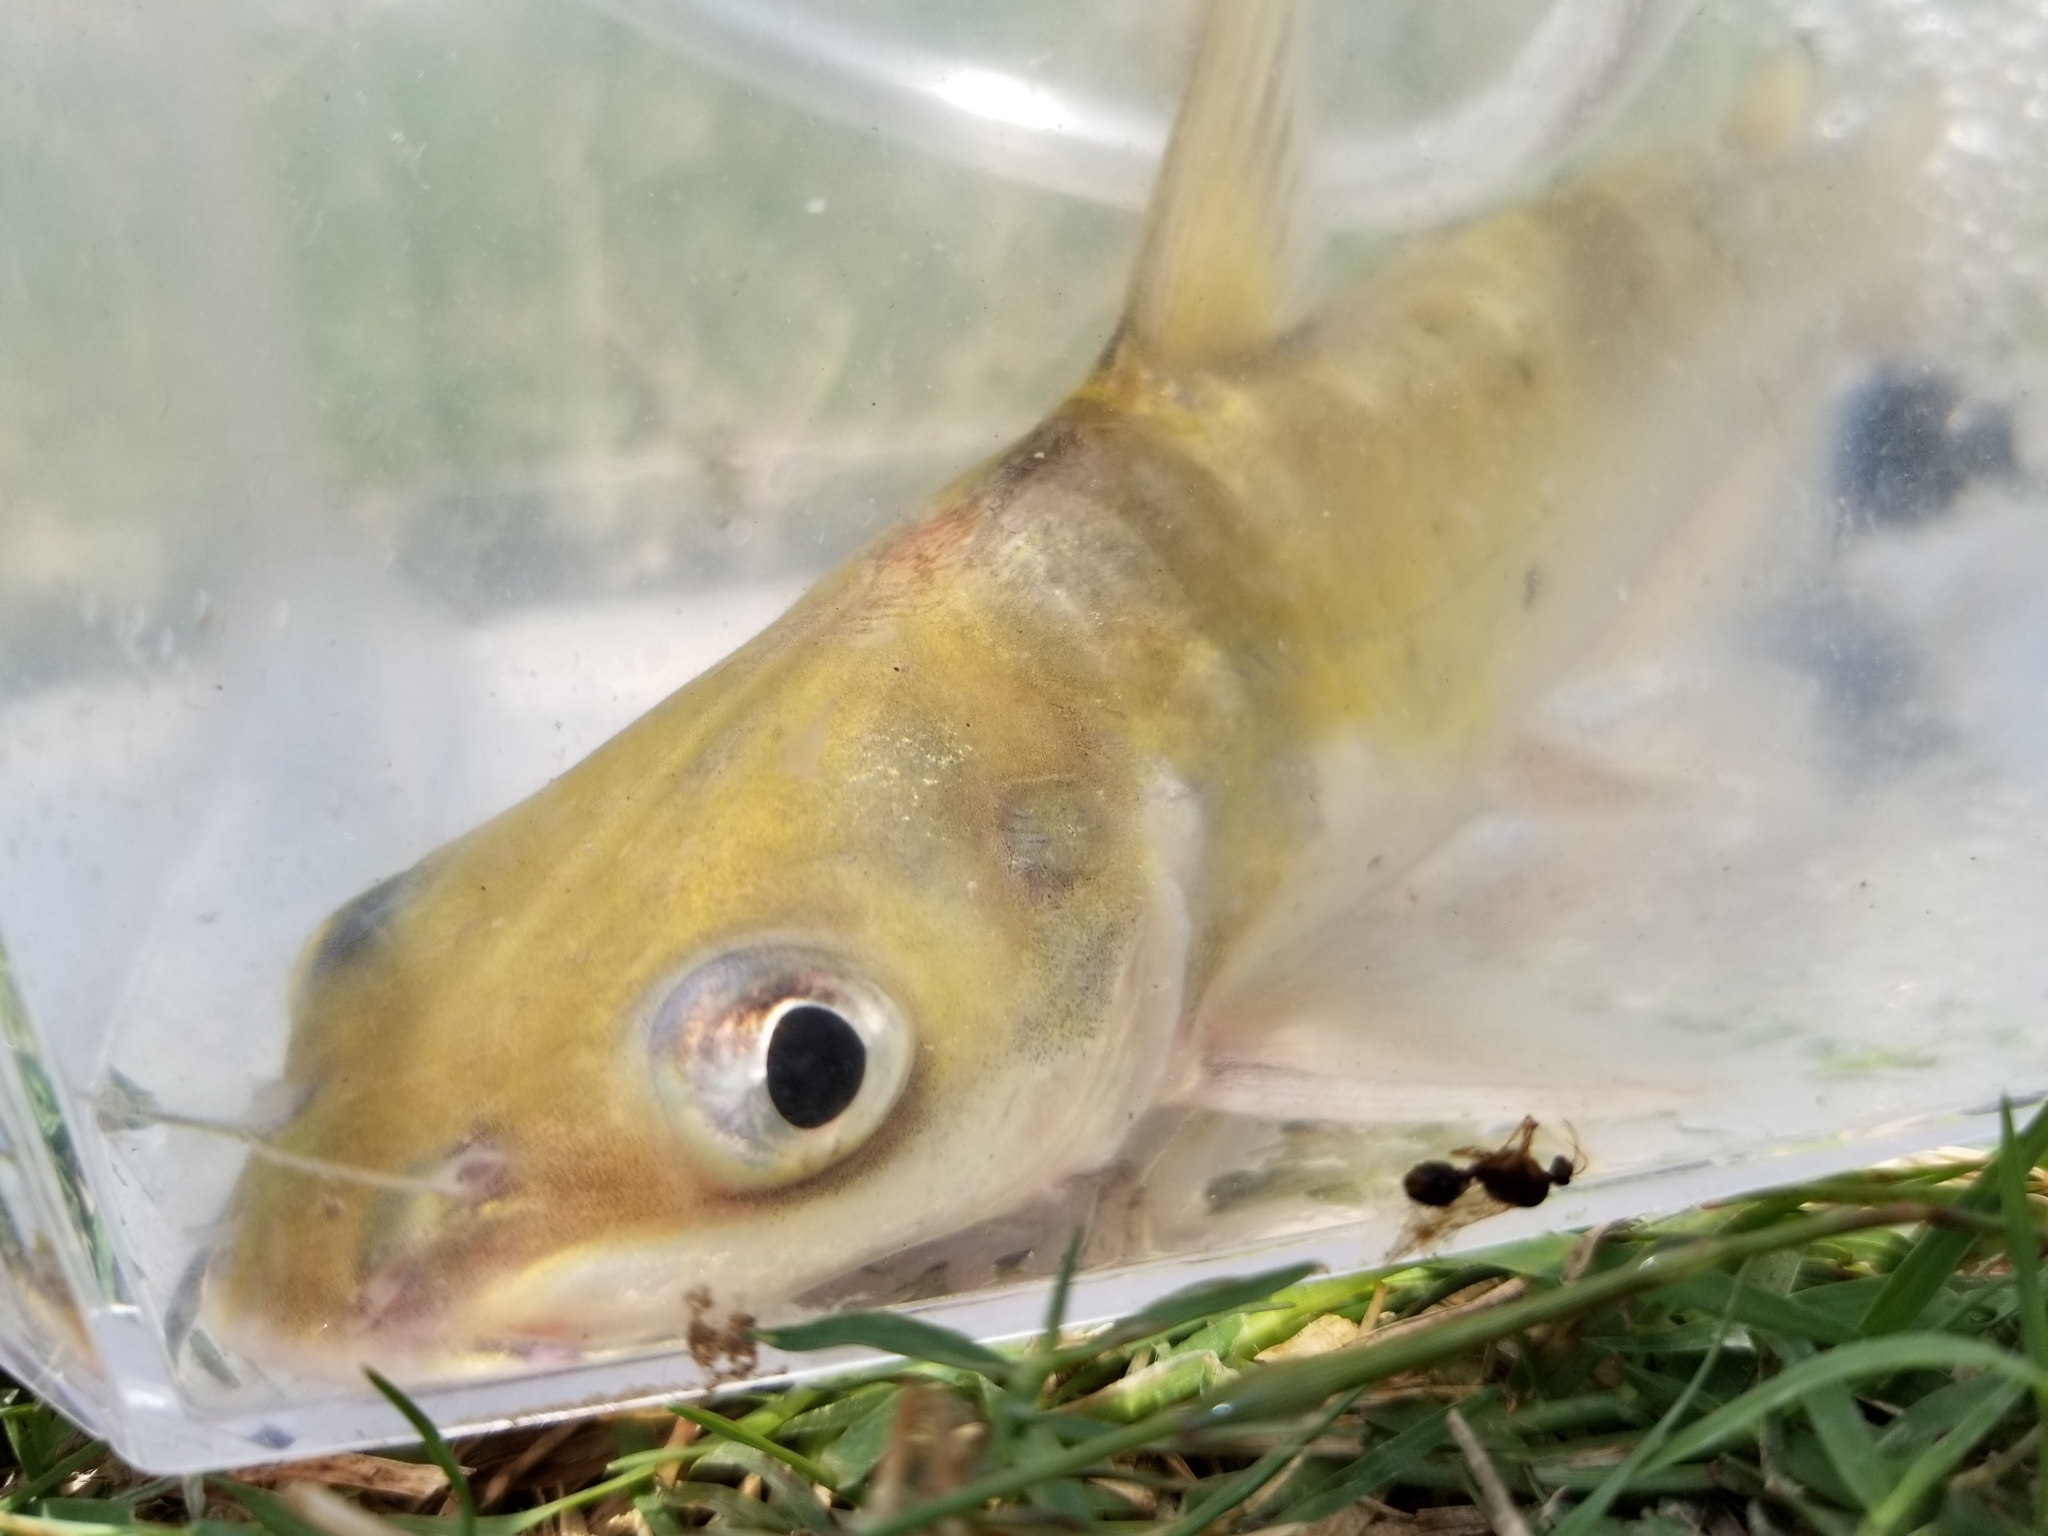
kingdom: Animalia
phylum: Chordata
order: Siluriformes
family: Ictaluridae
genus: Ictalurus
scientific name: Ictalurus punctatus
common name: Channel catfish
